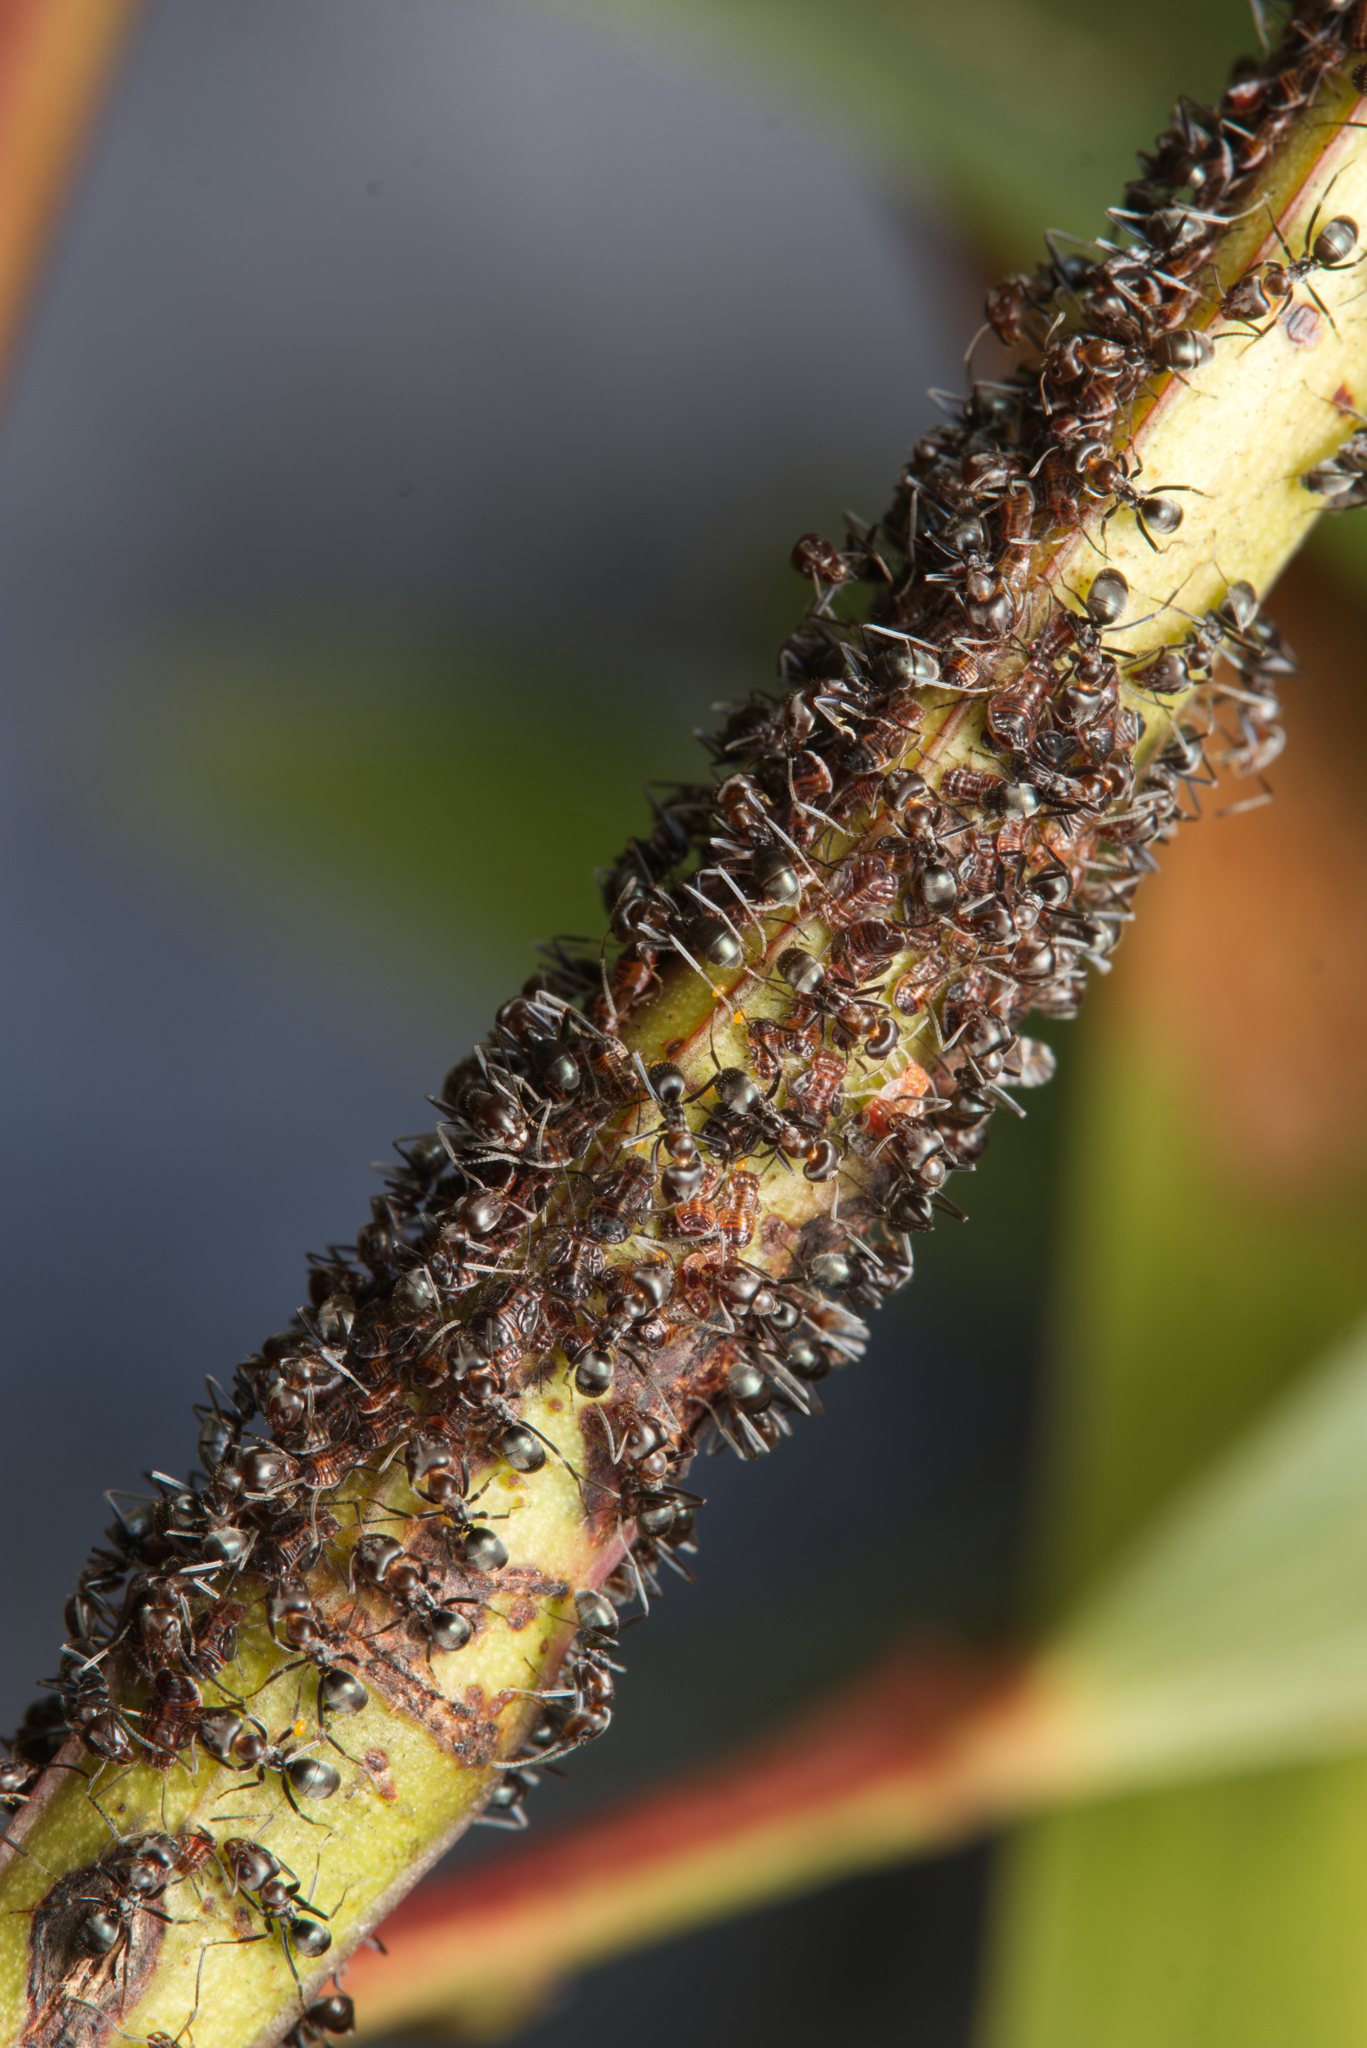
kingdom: Animalia
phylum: Arthropoda
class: Insecta
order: Hymenoptera
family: Formicidae
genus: Iridomyrmex
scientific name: Iridomyrmex rufoniger
